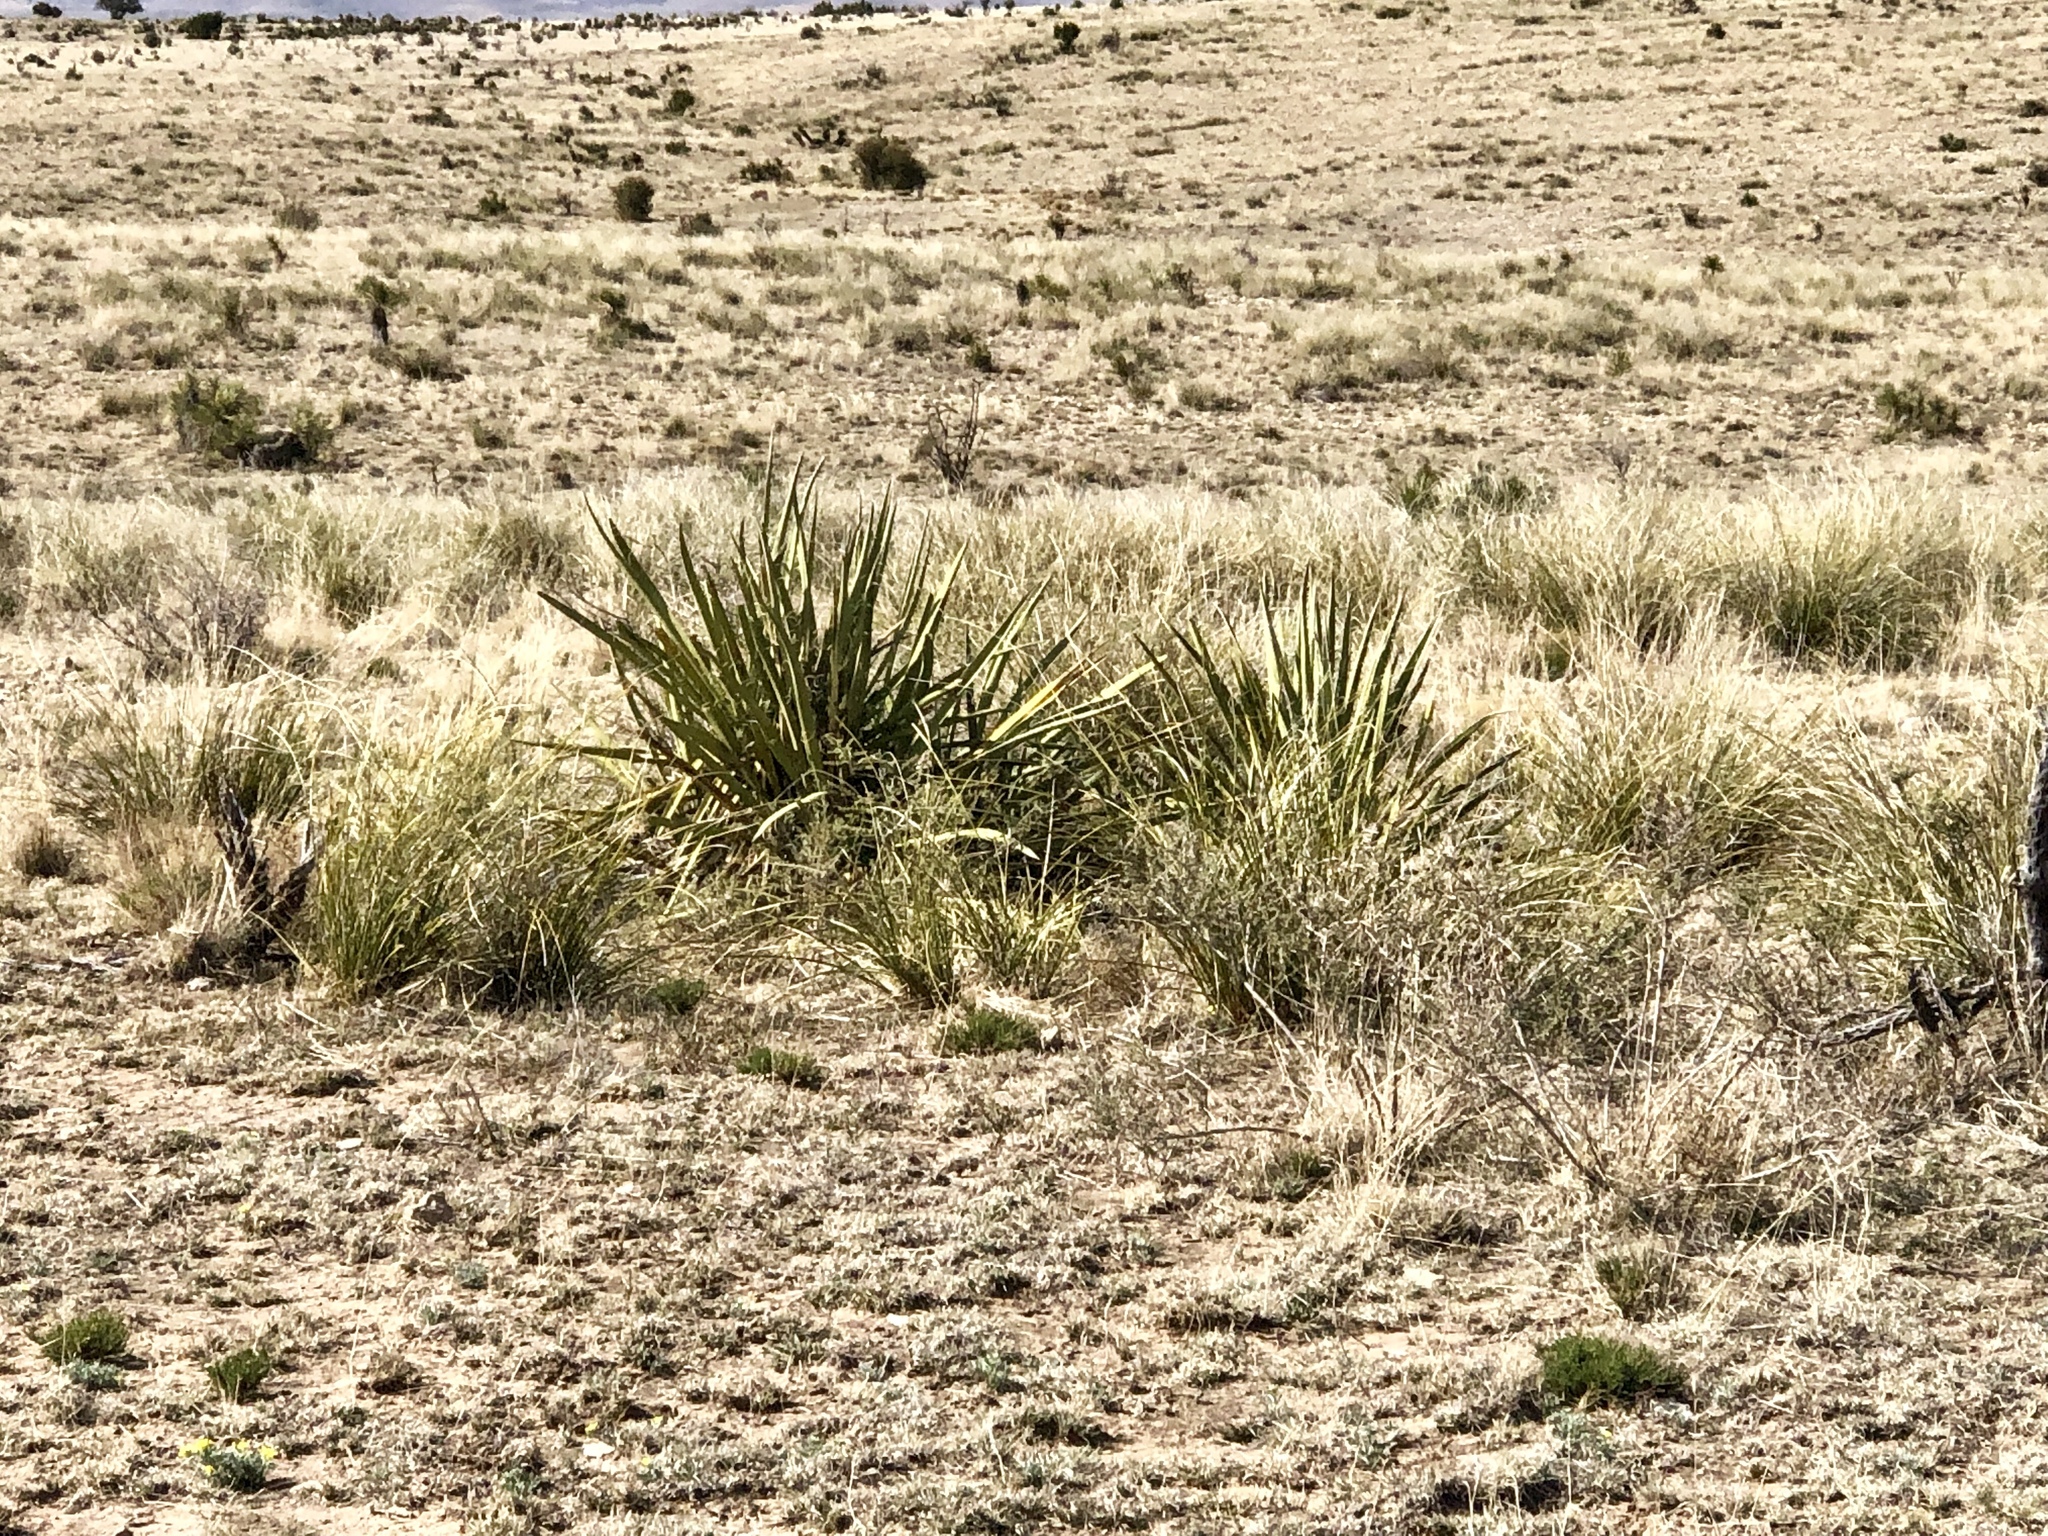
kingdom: Plantae
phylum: Tracheophyta
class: Liliopsida
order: Asparagales
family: Asparagaceae
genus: Yucca
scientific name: Yucca baccata
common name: Banana yucca
